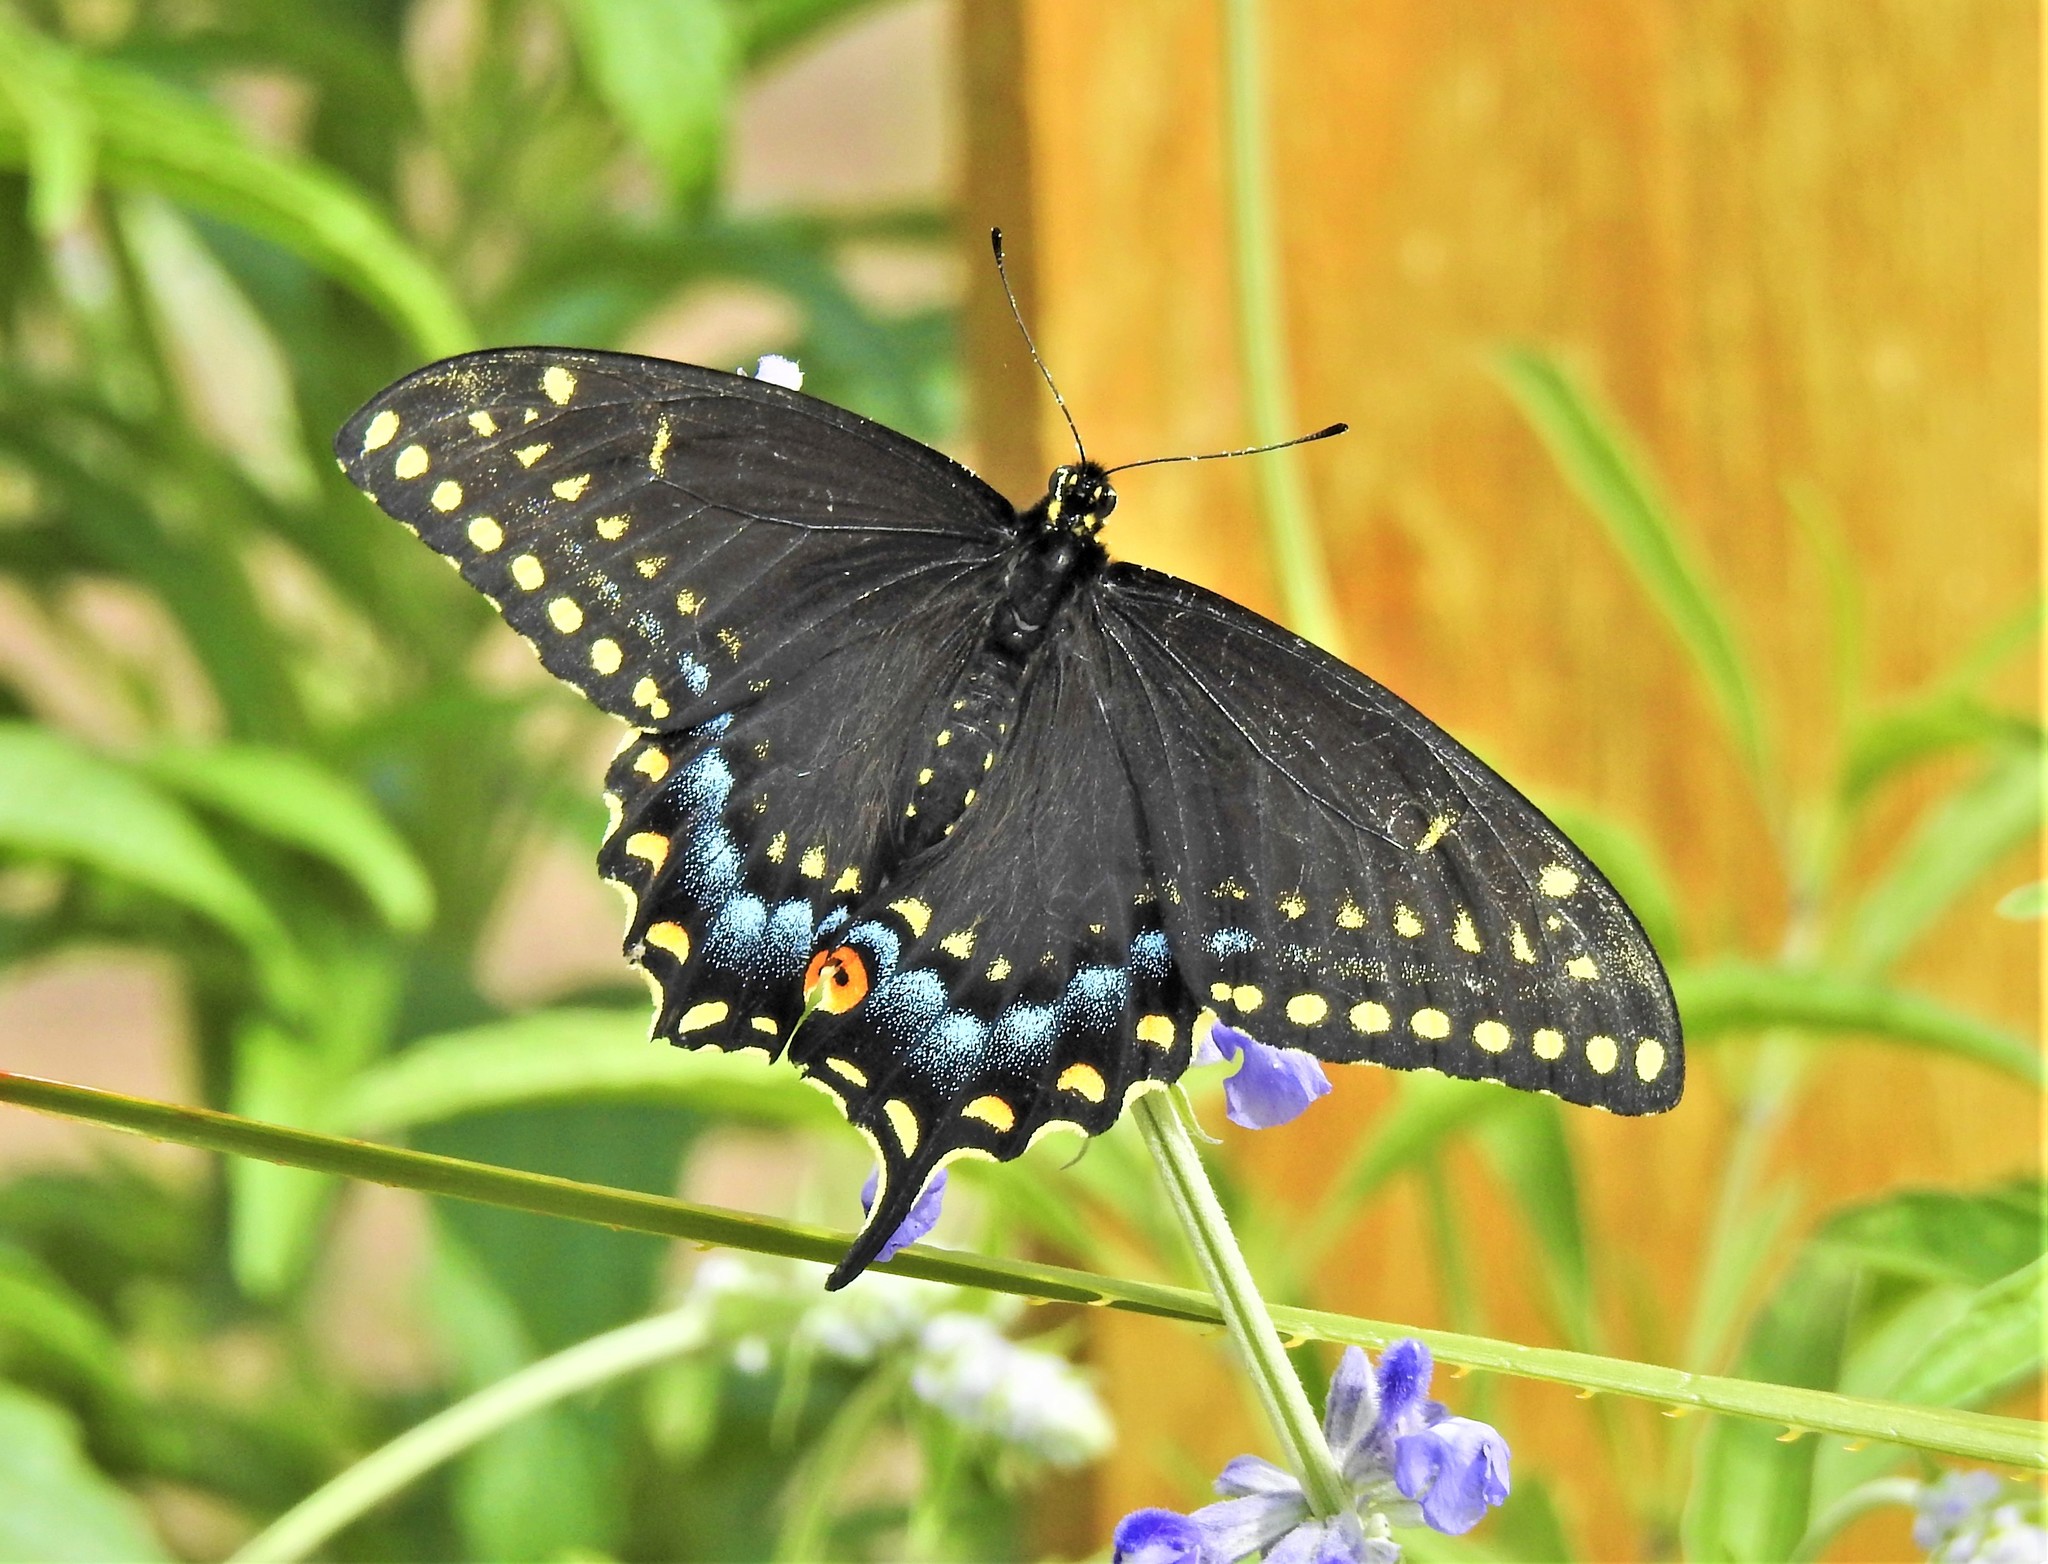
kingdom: Animalia
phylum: Arthropoda
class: Insecta
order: Lepidoptera
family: Papilionidae
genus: Papilio
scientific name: Papilio polyxenes
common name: Black swallowtail
